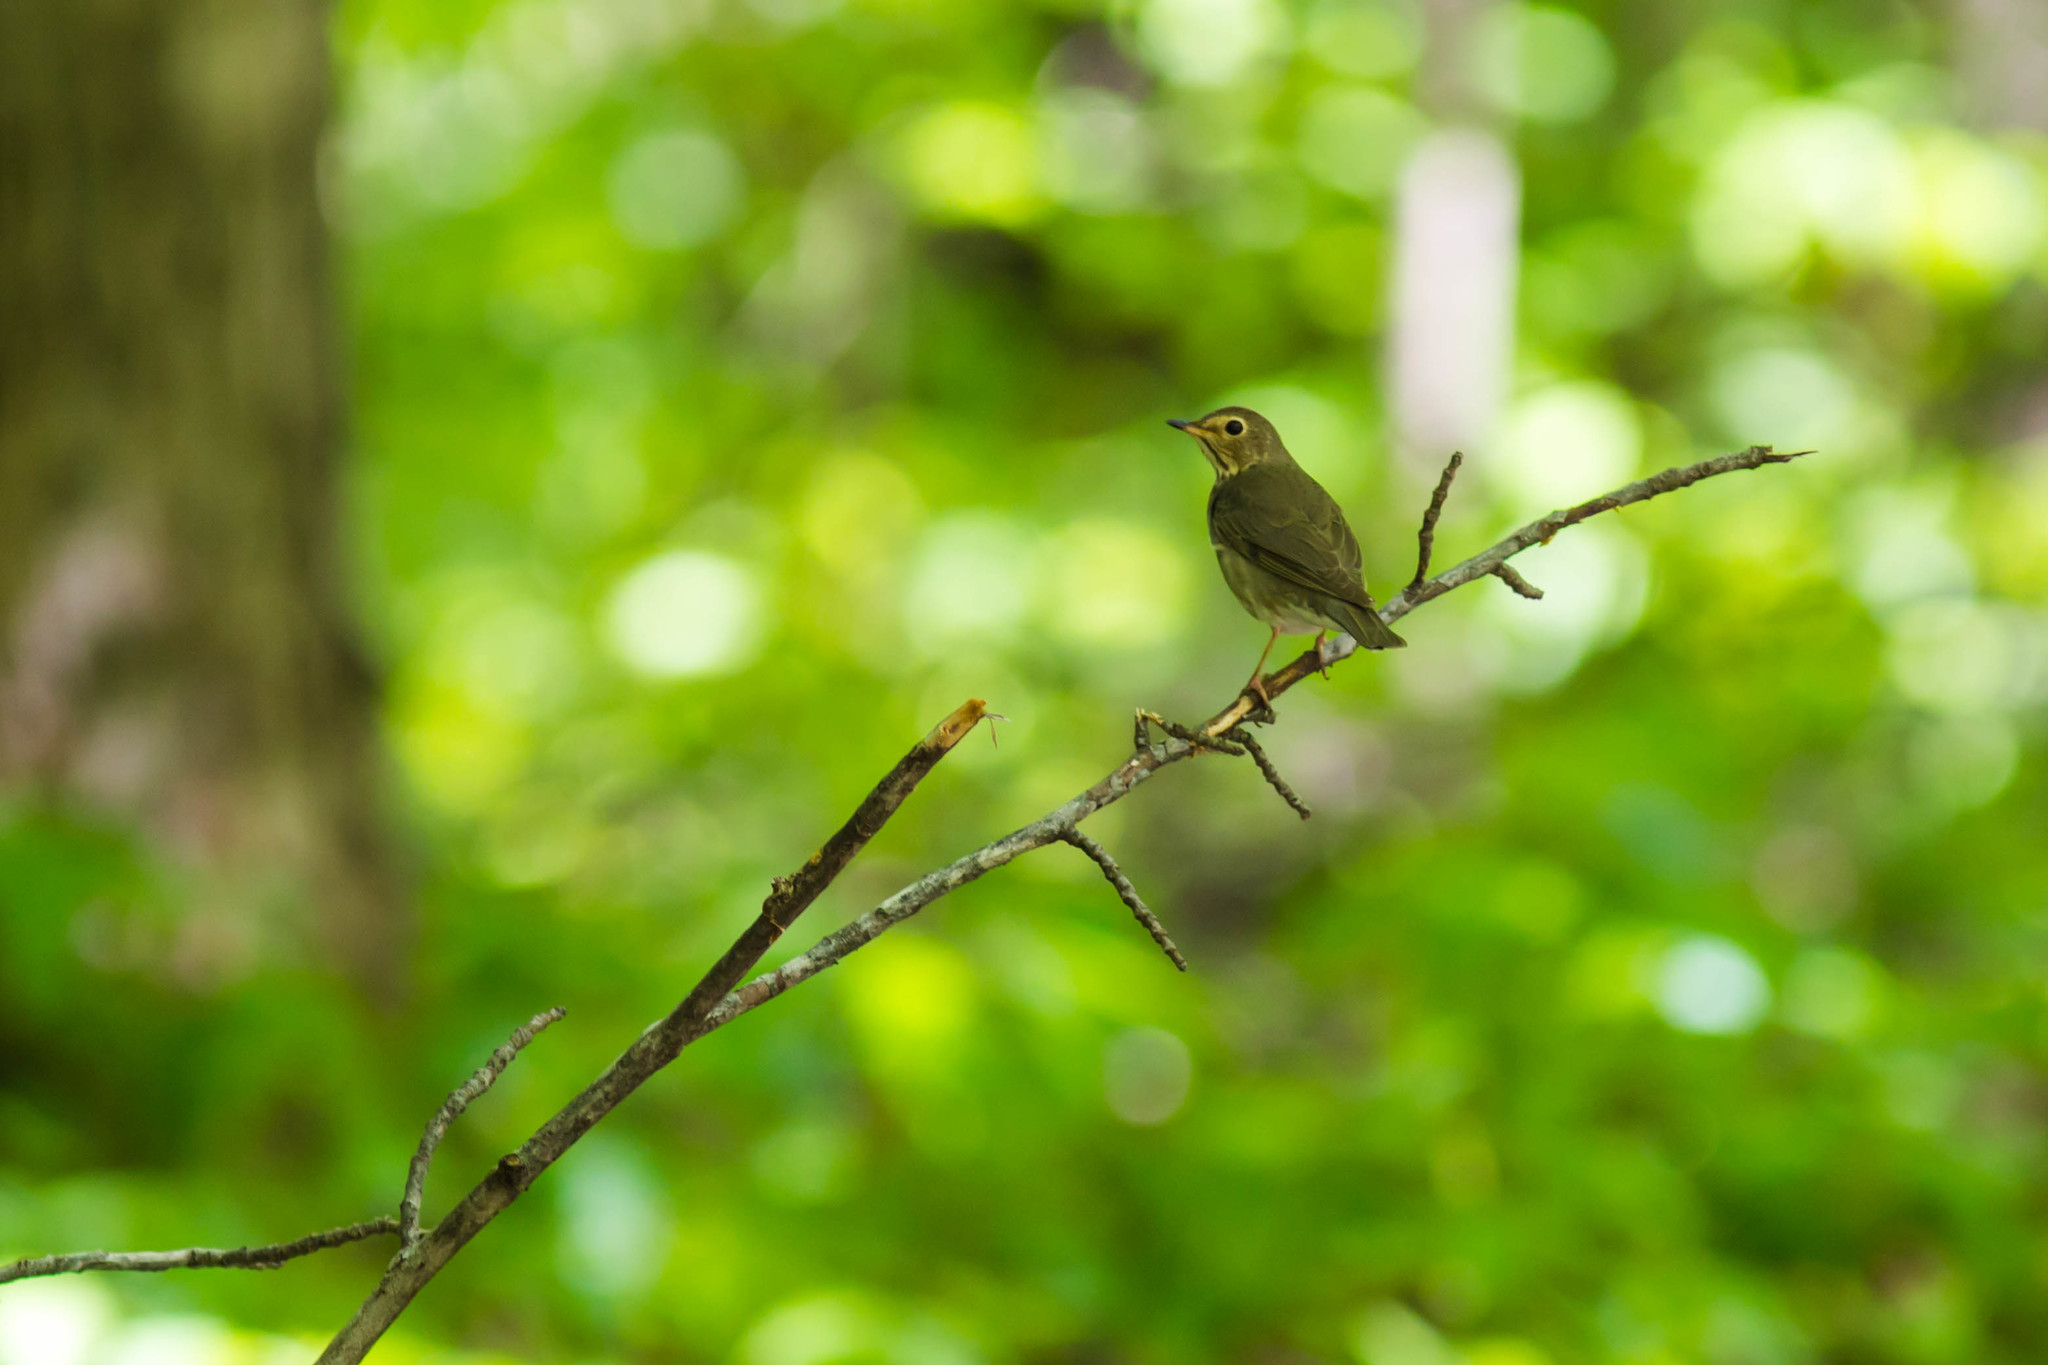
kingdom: Animalia
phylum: Chordata
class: Aves
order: Passeriformes
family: Turdidae
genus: Catharus
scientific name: Catharus ustulatus
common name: Swainson's thrush
